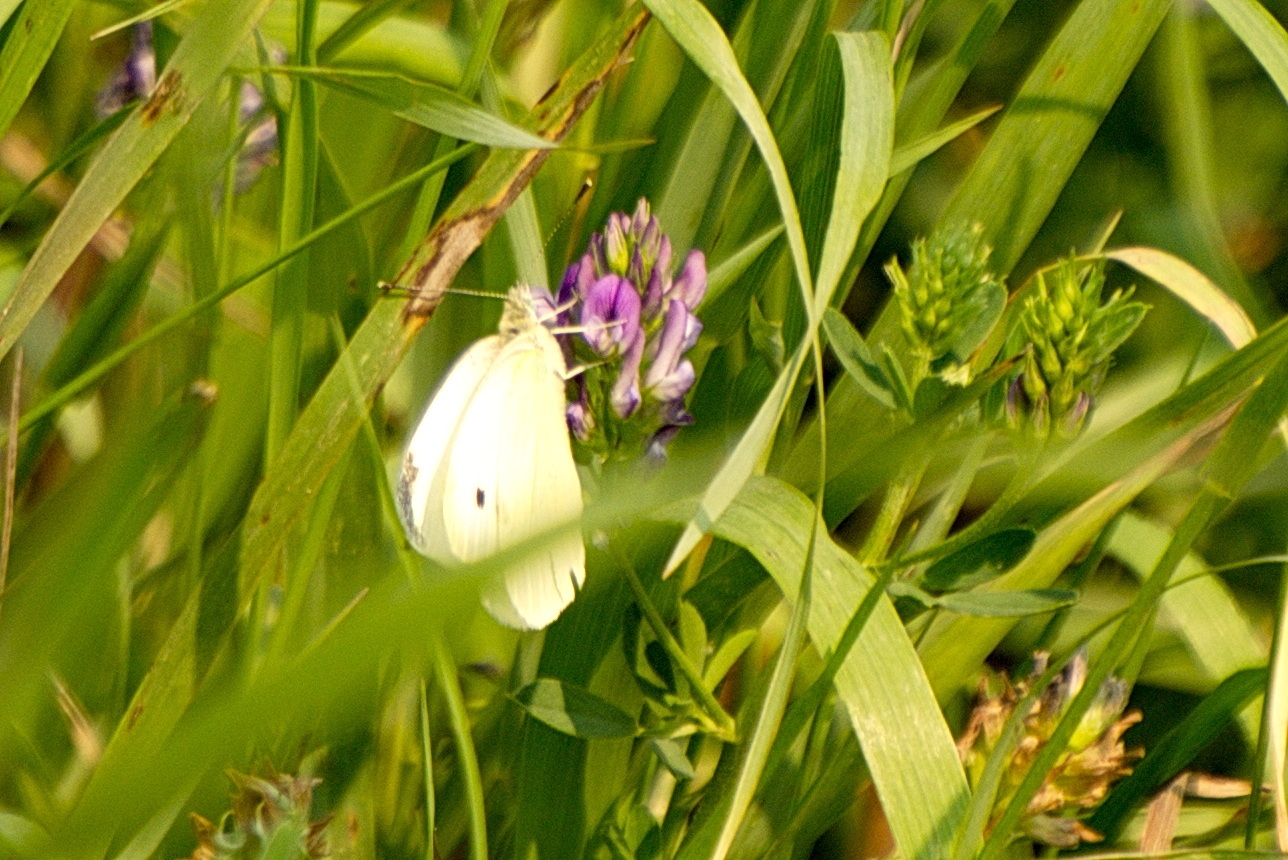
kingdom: Animalia
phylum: Arthropoda
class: Insecta
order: Lepidoptera
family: Pieridae
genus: Pieris
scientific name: Pieris rapae
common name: Small white
